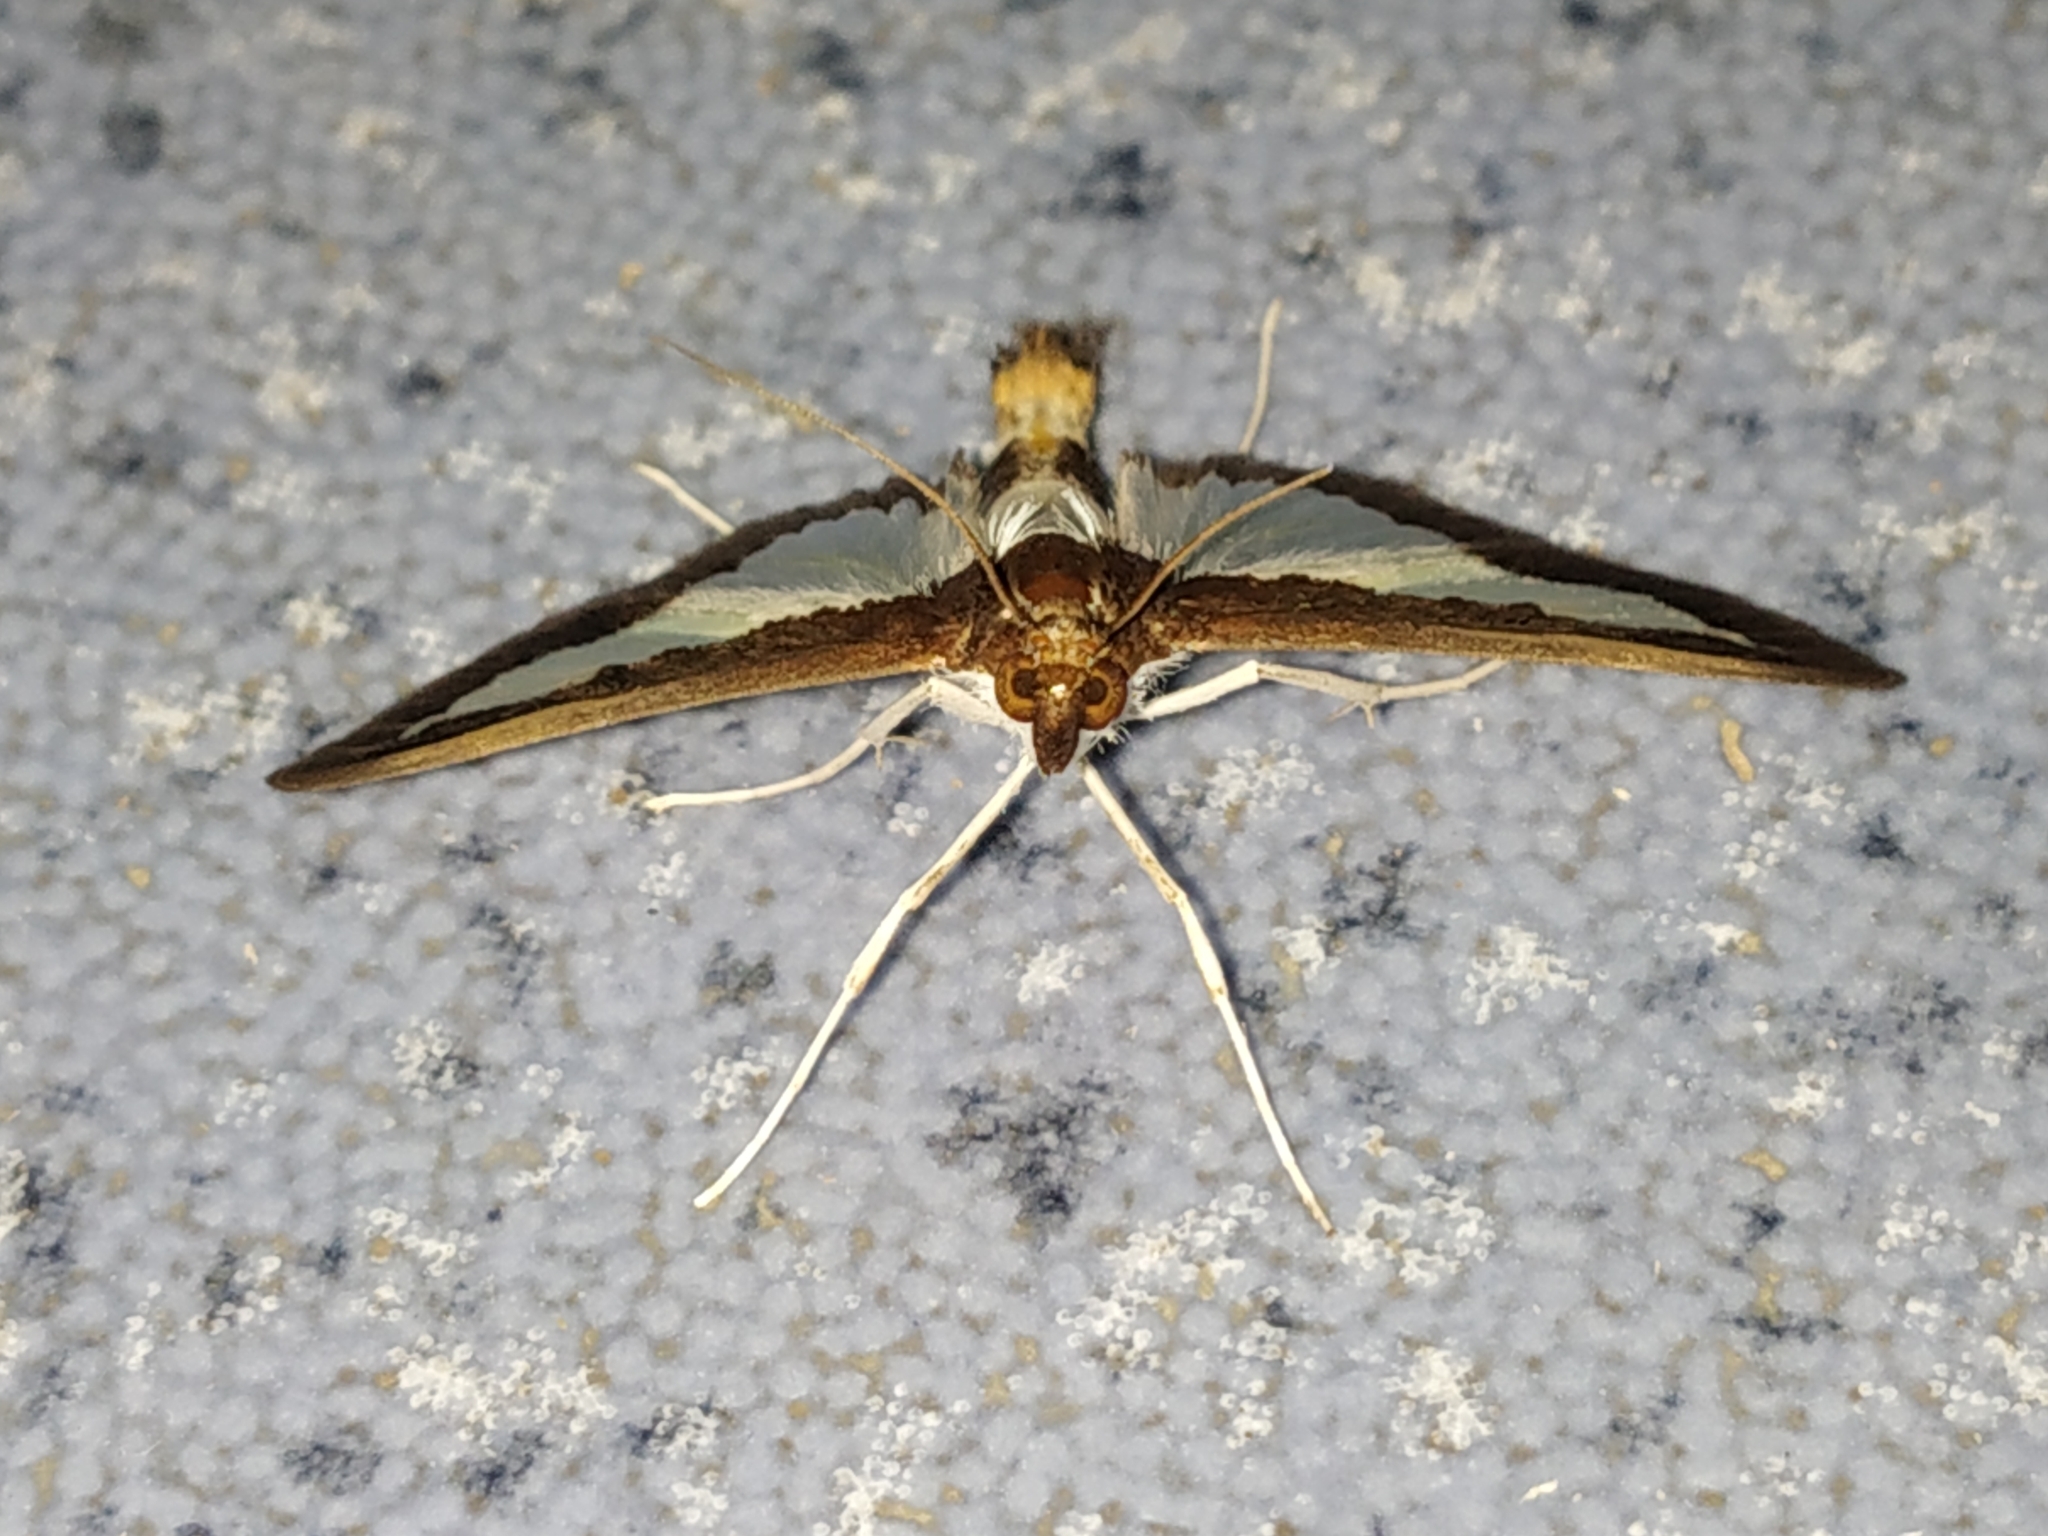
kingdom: Animalia
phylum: Arthropoda
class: Insecta
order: Lepidoptera
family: Crambidae
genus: Diaphania
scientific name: Diaphania indica
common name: Cucumber moth
